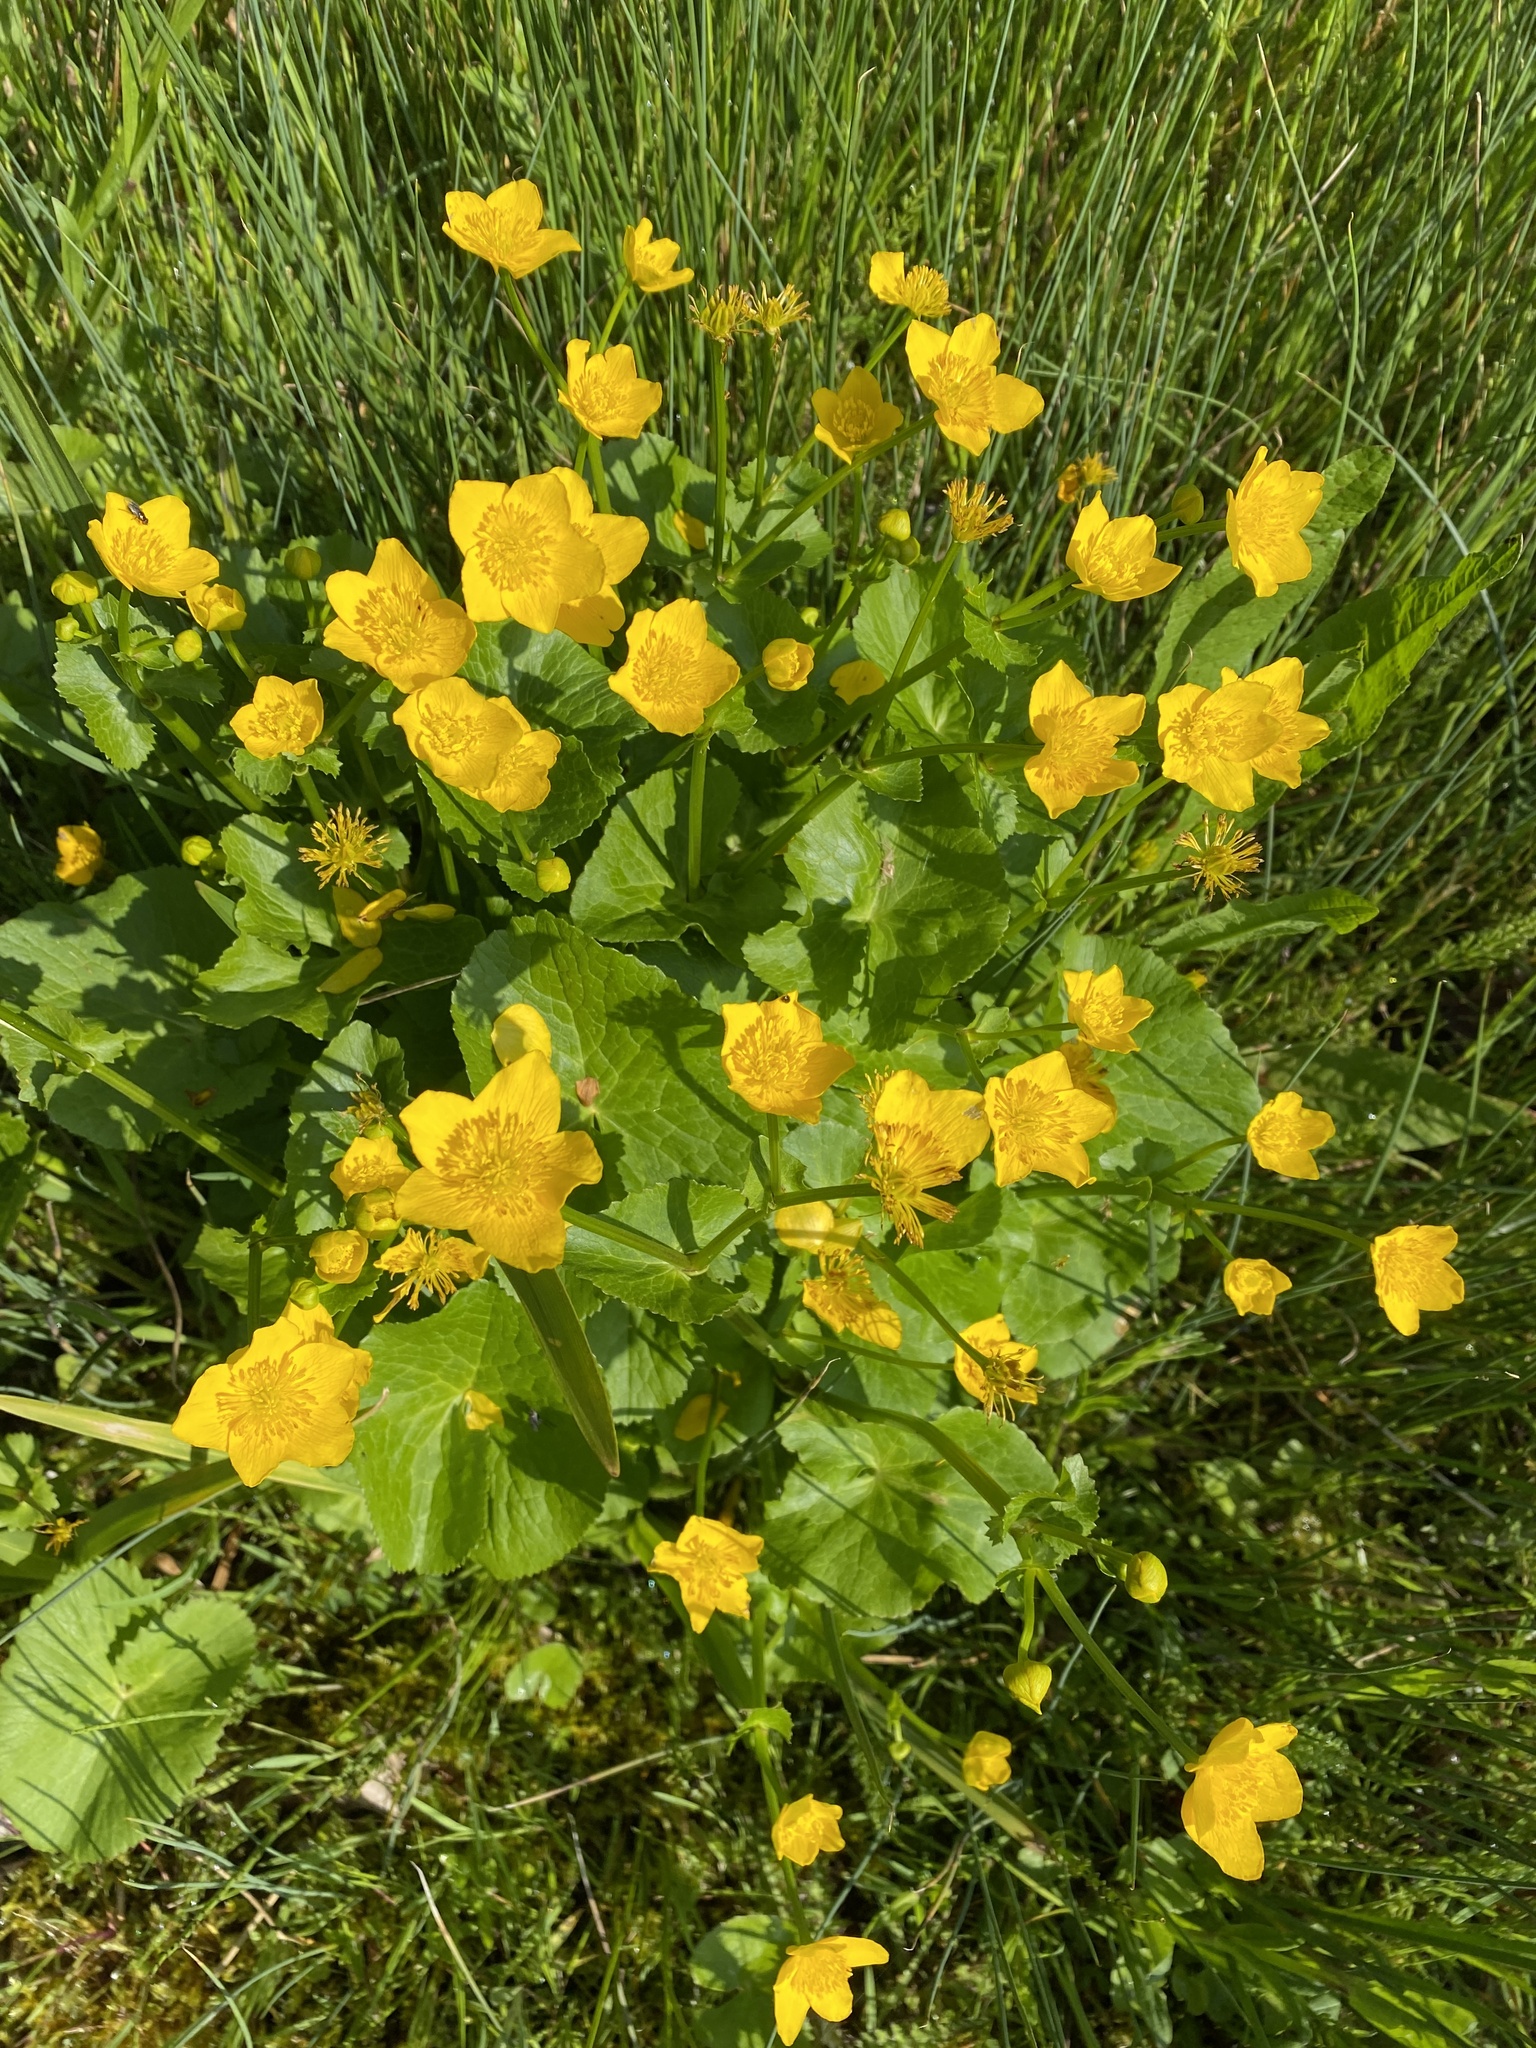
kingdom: Plantae
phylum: Tracheophyta
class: Magnoliopsida
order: Ranunculales
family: Ranunculaceae
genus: Caltha
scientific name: Caltha palustris
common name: Marsh marigold
